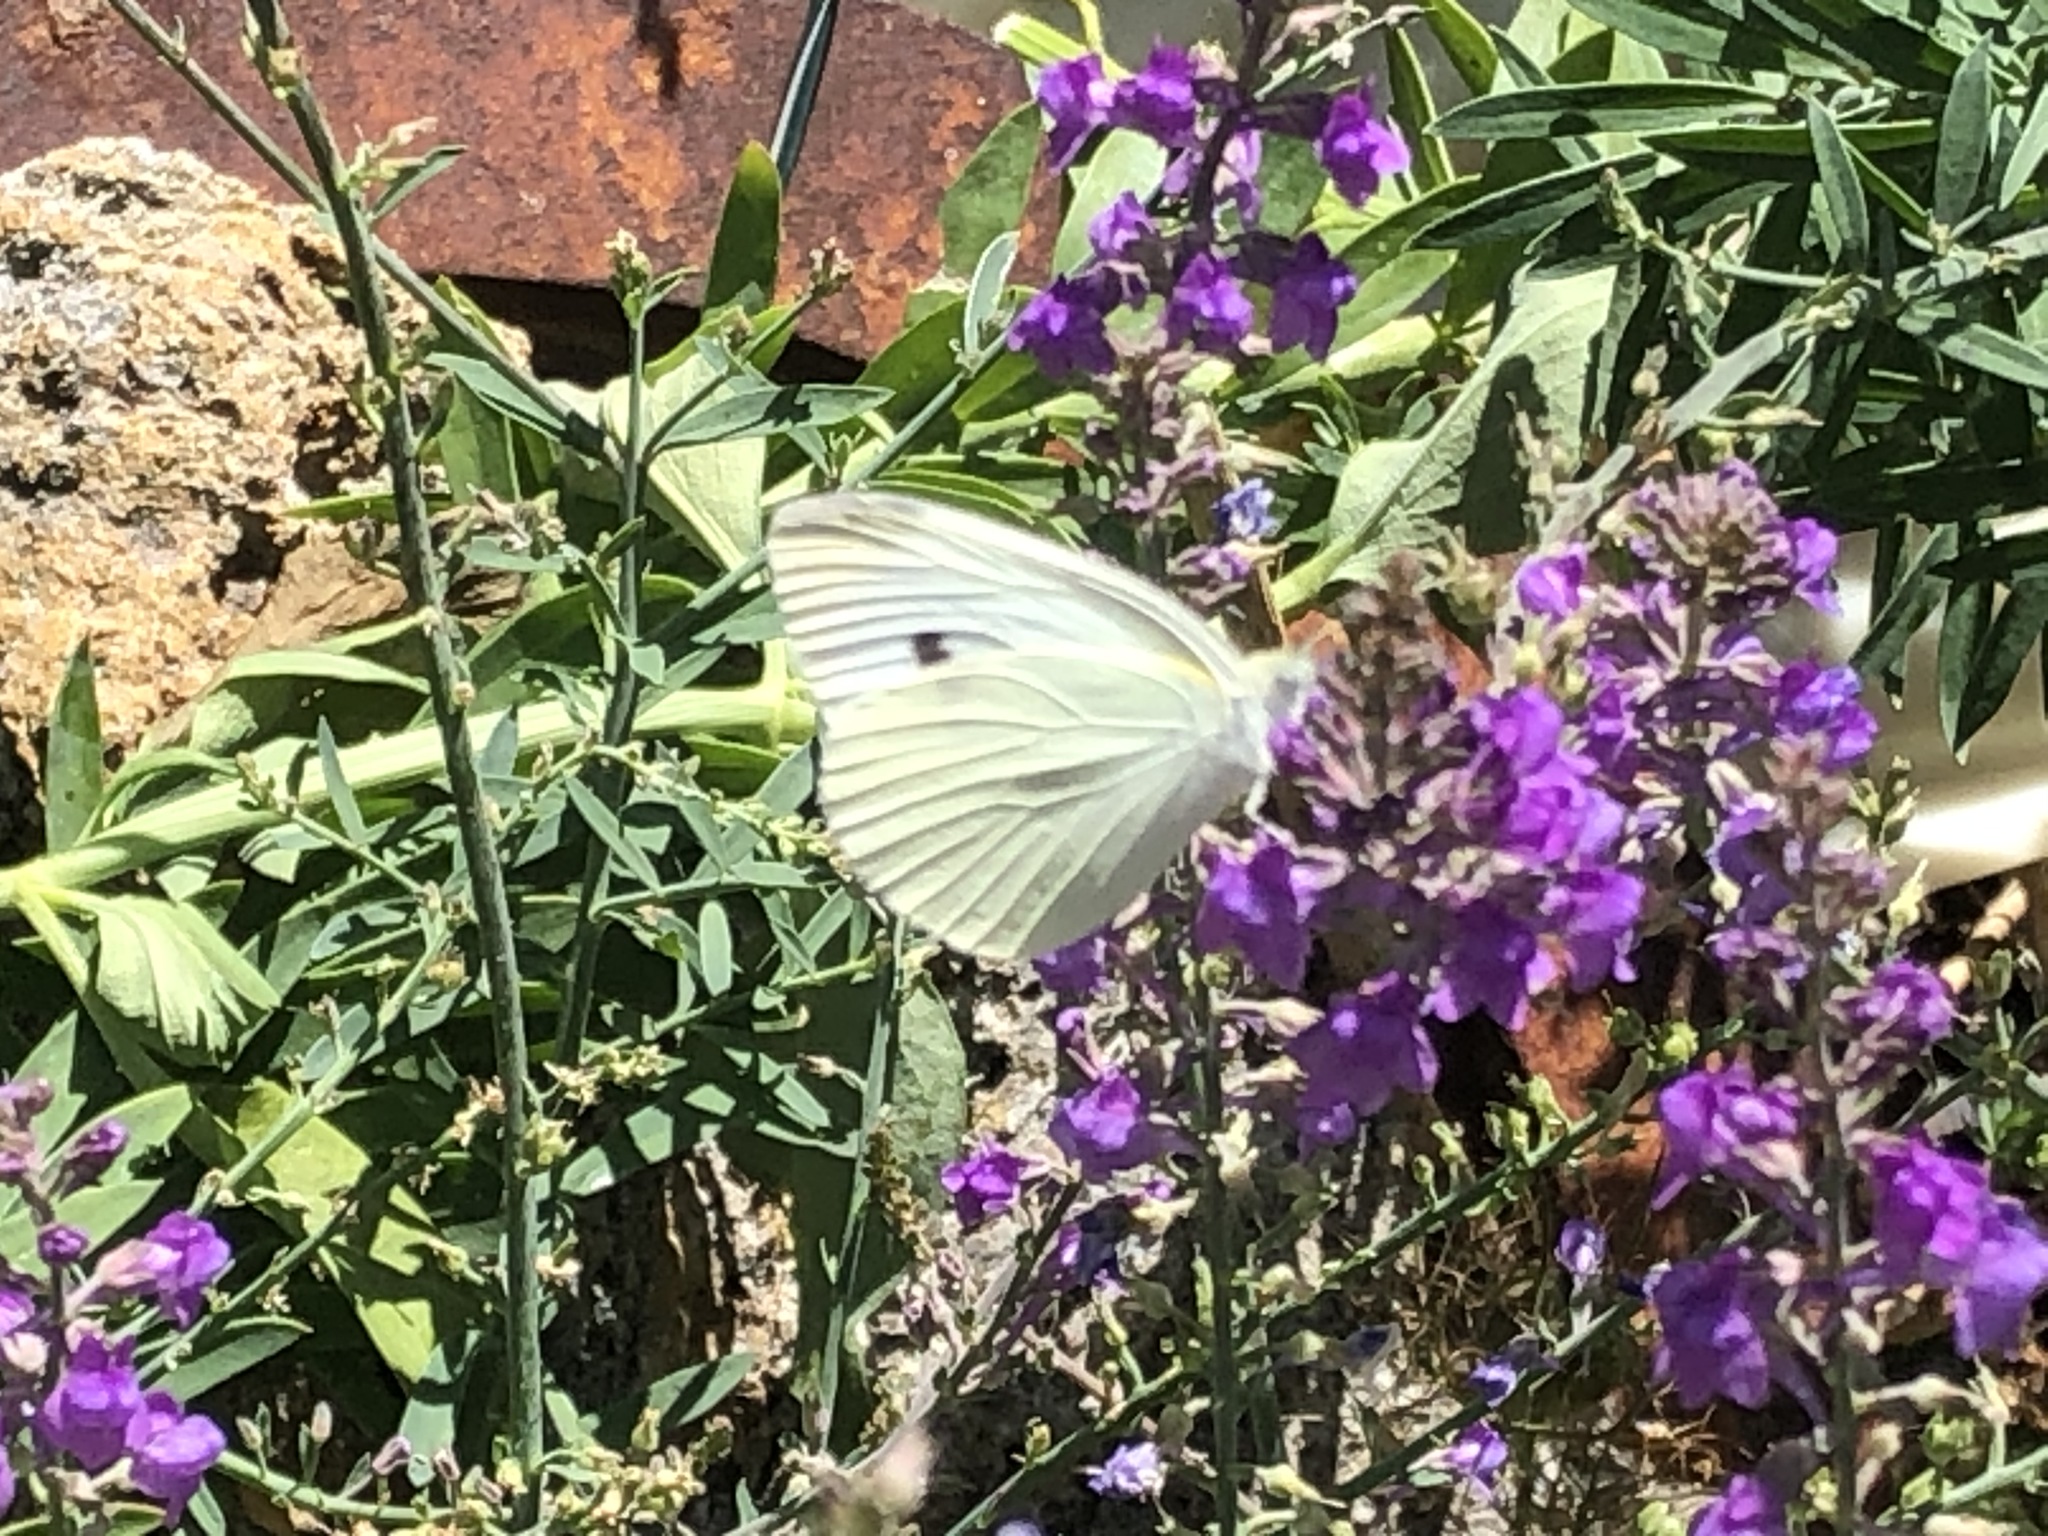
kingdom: Animalia
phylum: Arthropoda
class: Insecta
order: Lepidoptera
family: Pieridae
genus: Pieris
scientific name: Pieris rapae
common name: Small white
